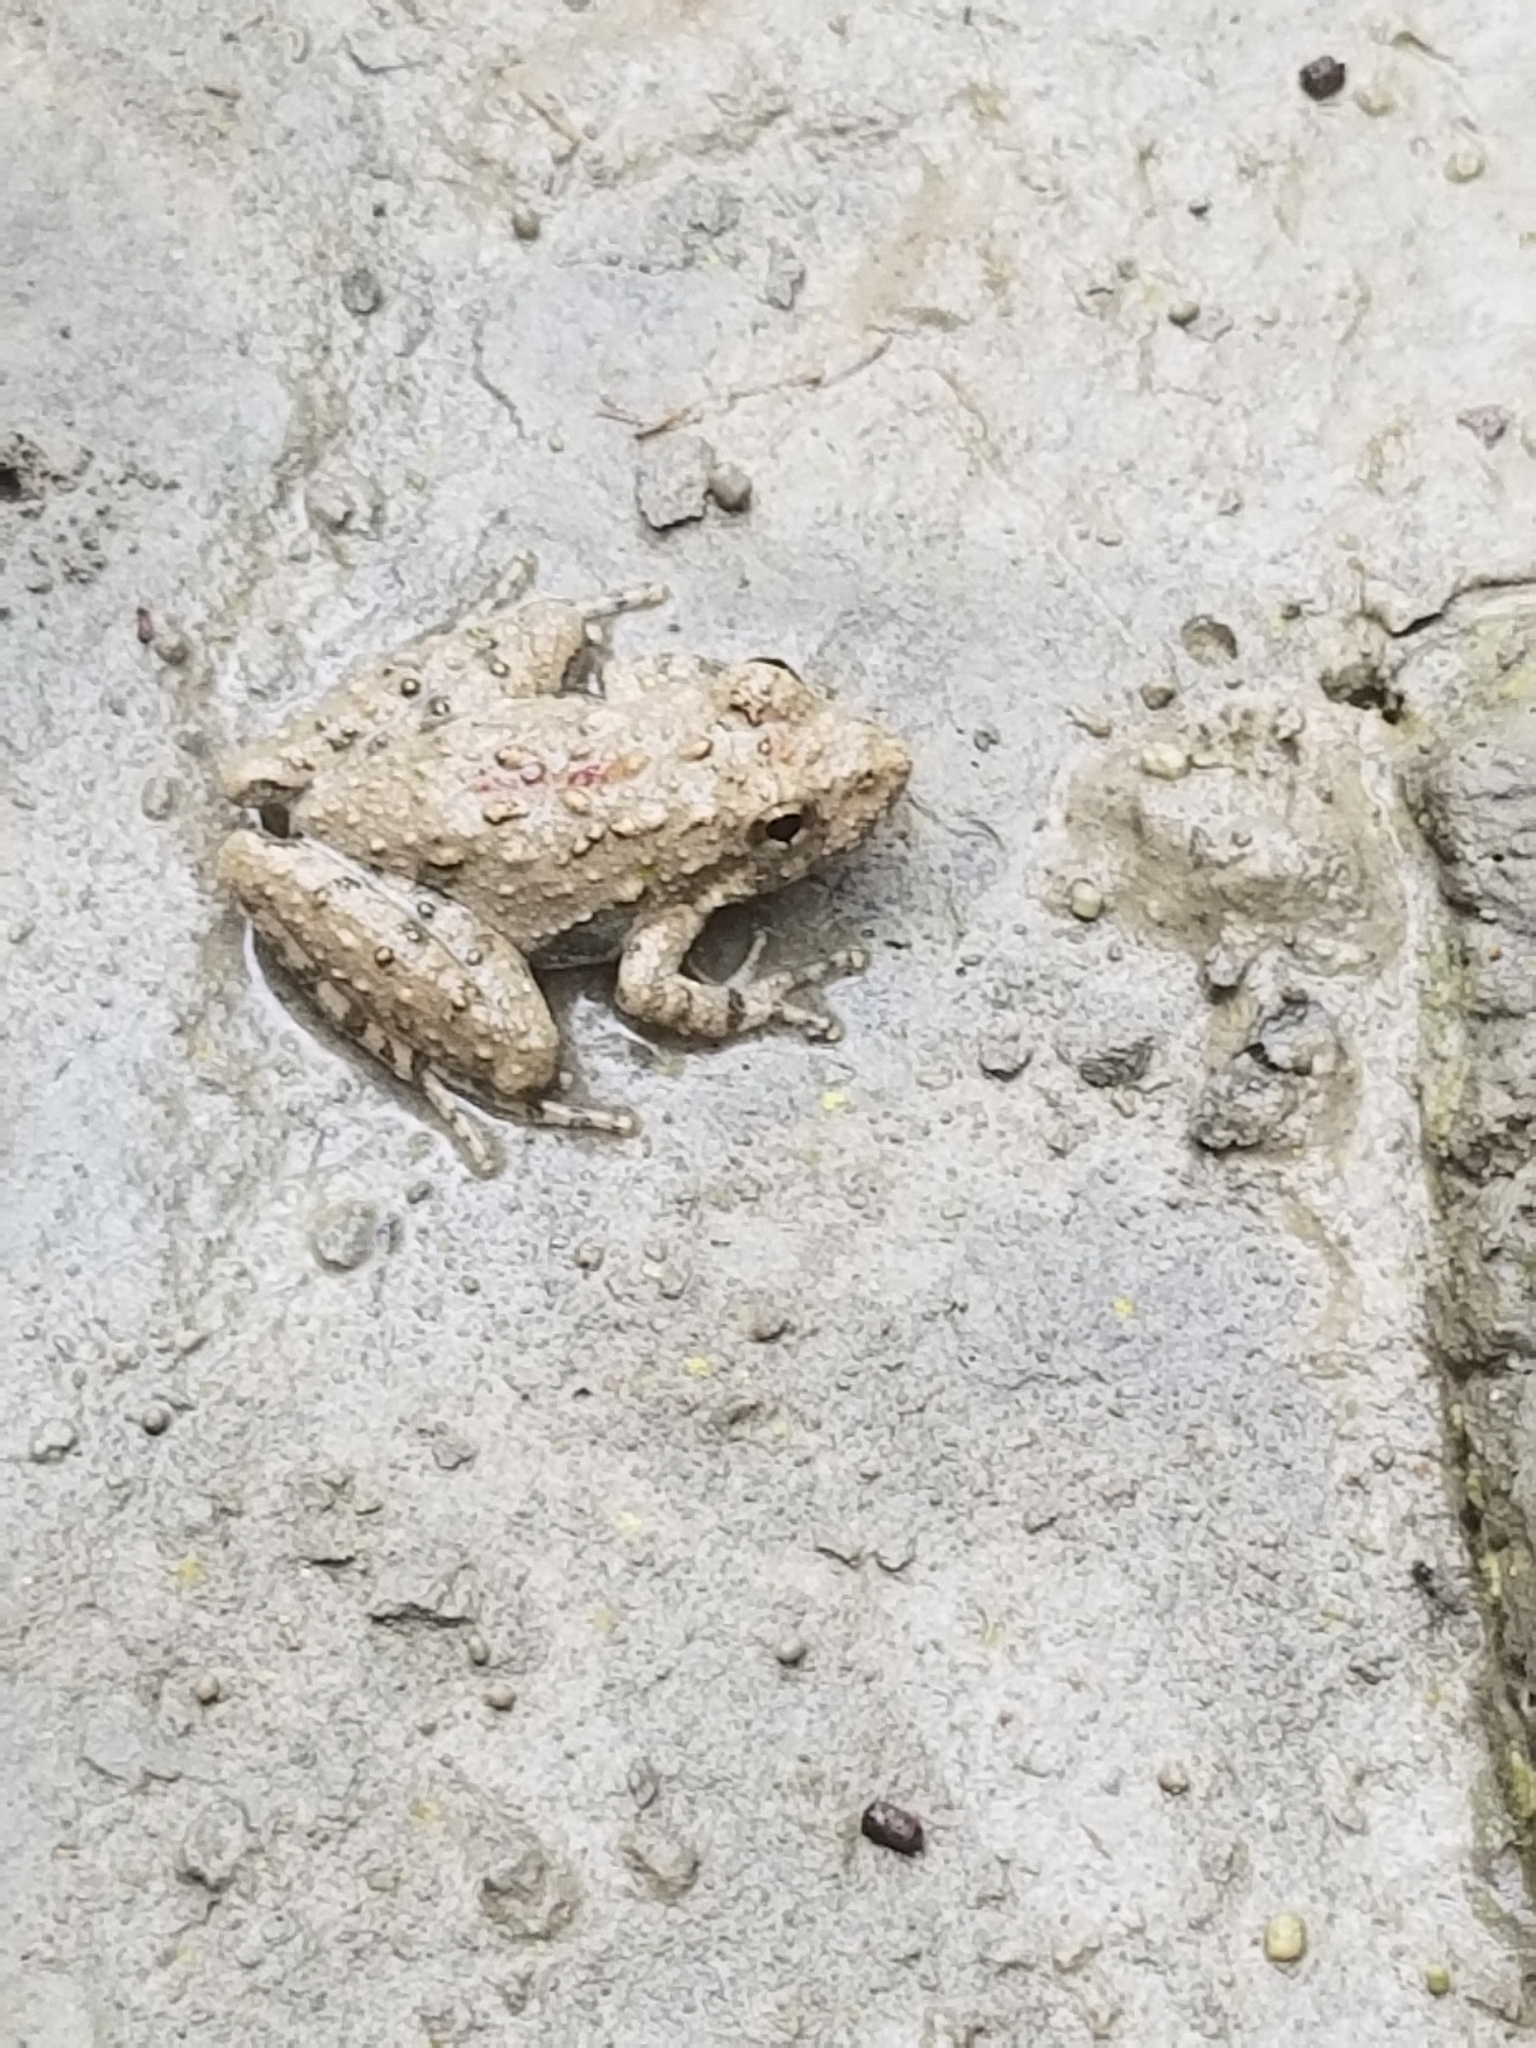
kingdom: Animalia
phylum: Chordata
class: Amphibia
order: Anura
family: Hylidae
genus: Acris
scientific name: Acris blanchardi
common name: Blanchard's cricket frog
